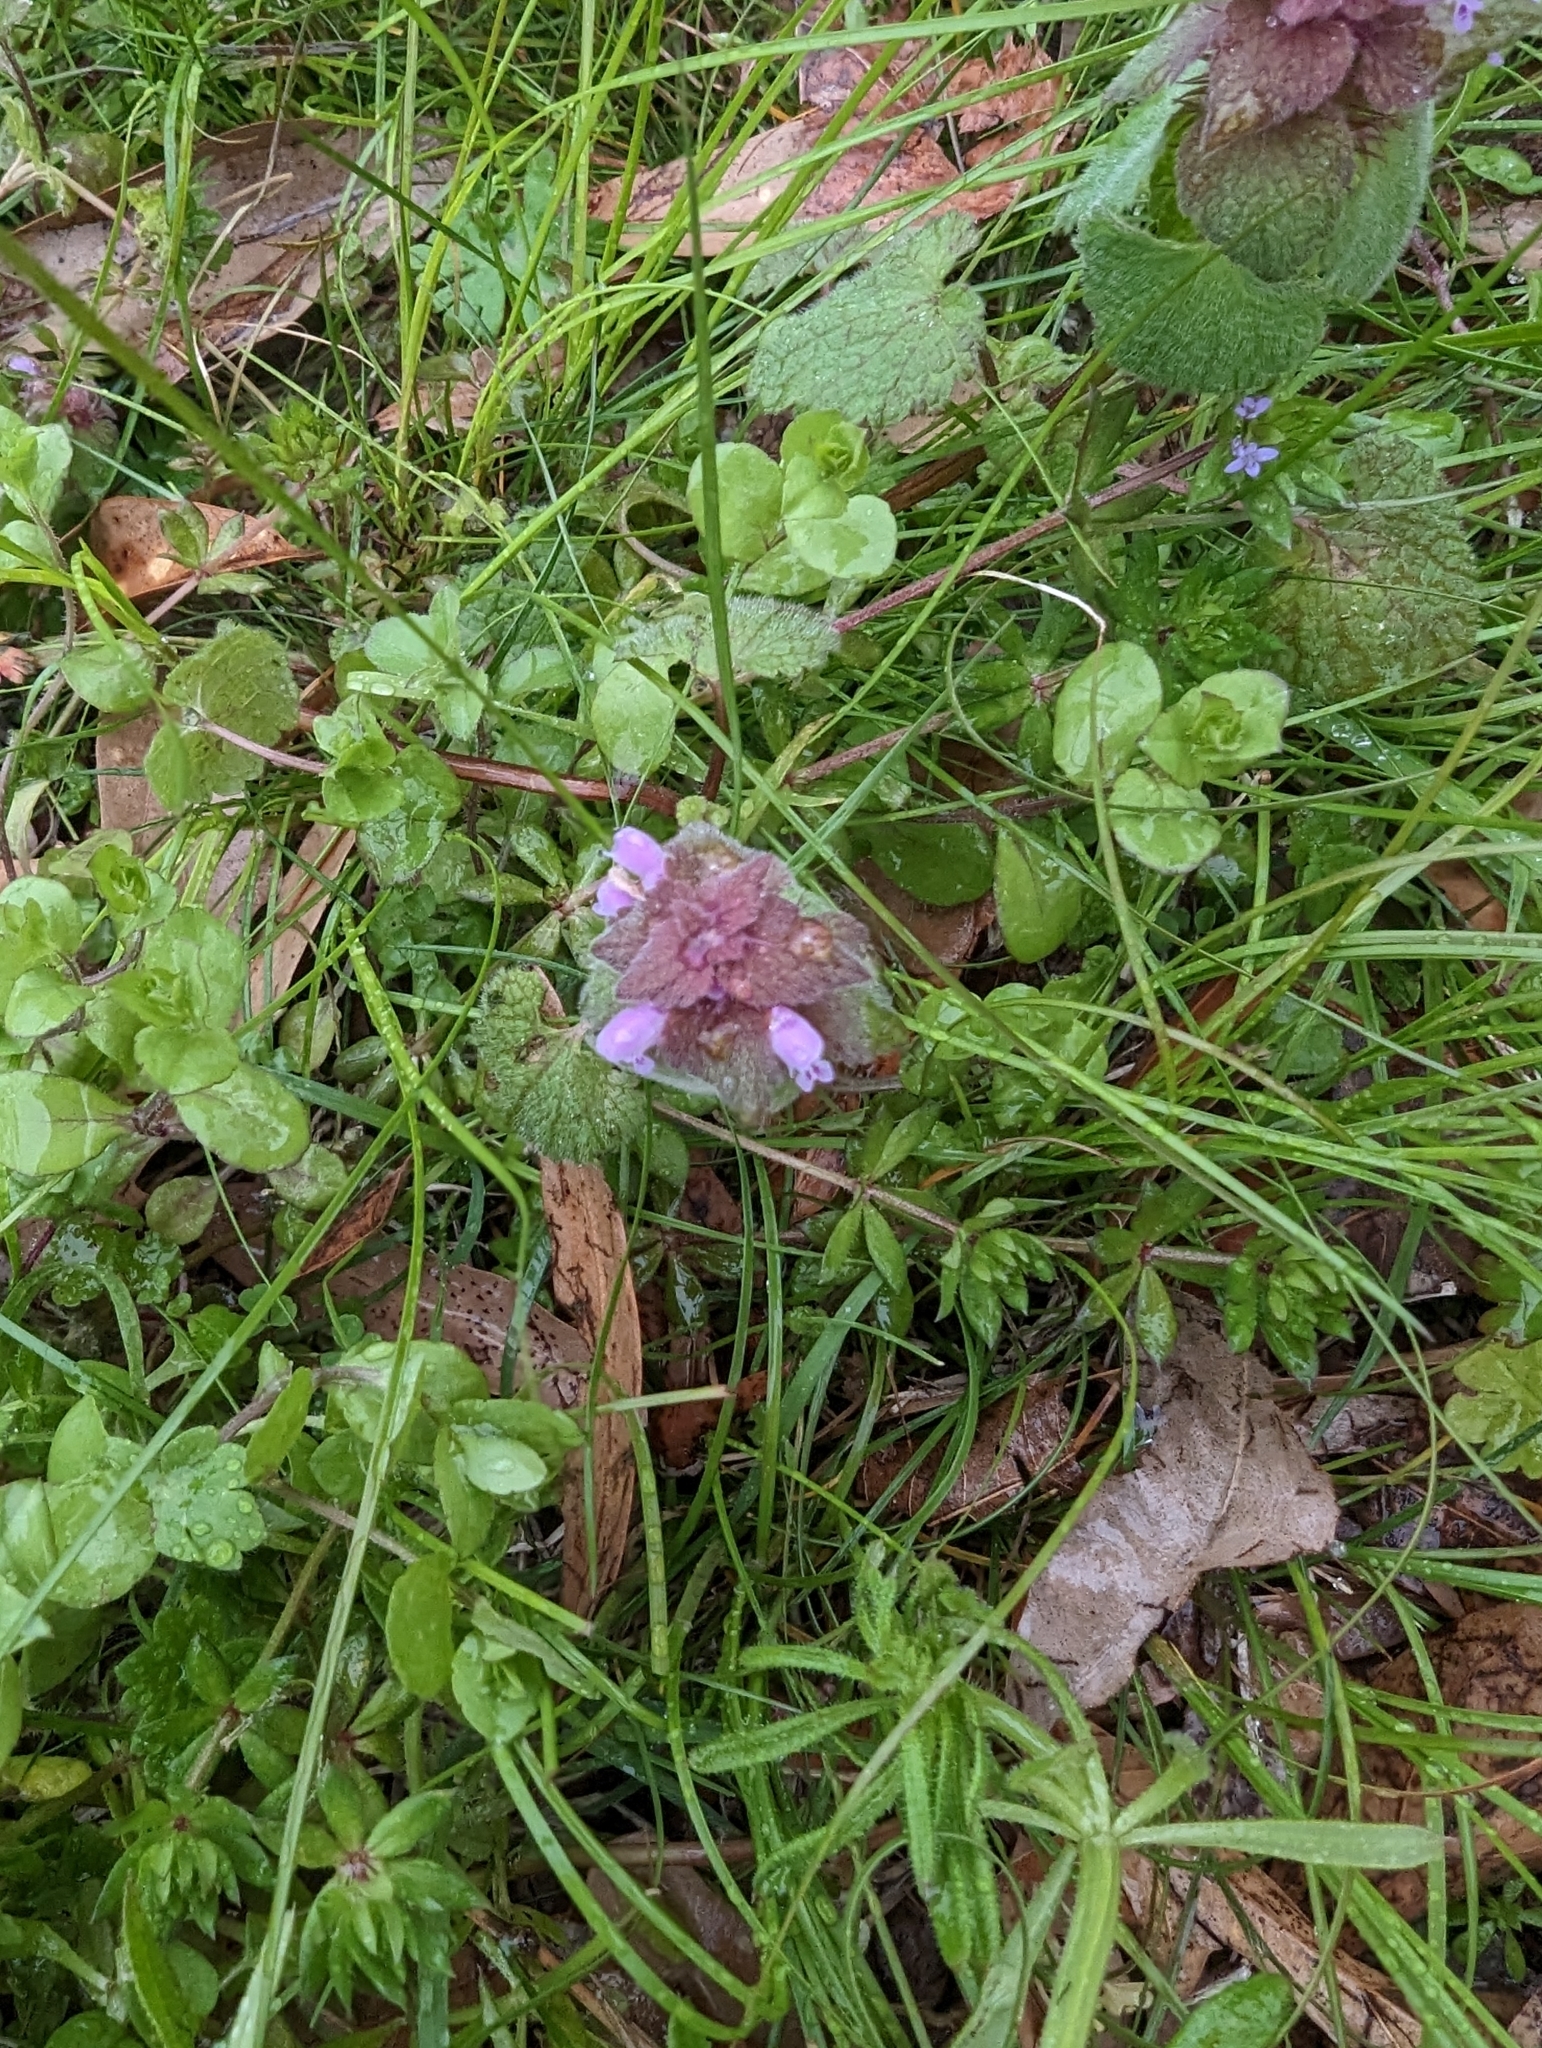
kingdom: Plantae
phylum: Tracheophyta
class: Magnoliopsida
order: Lamiales
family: Lamiaceae
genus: Lamium
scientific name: Lamium purpureum
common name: Red dead-nettle
